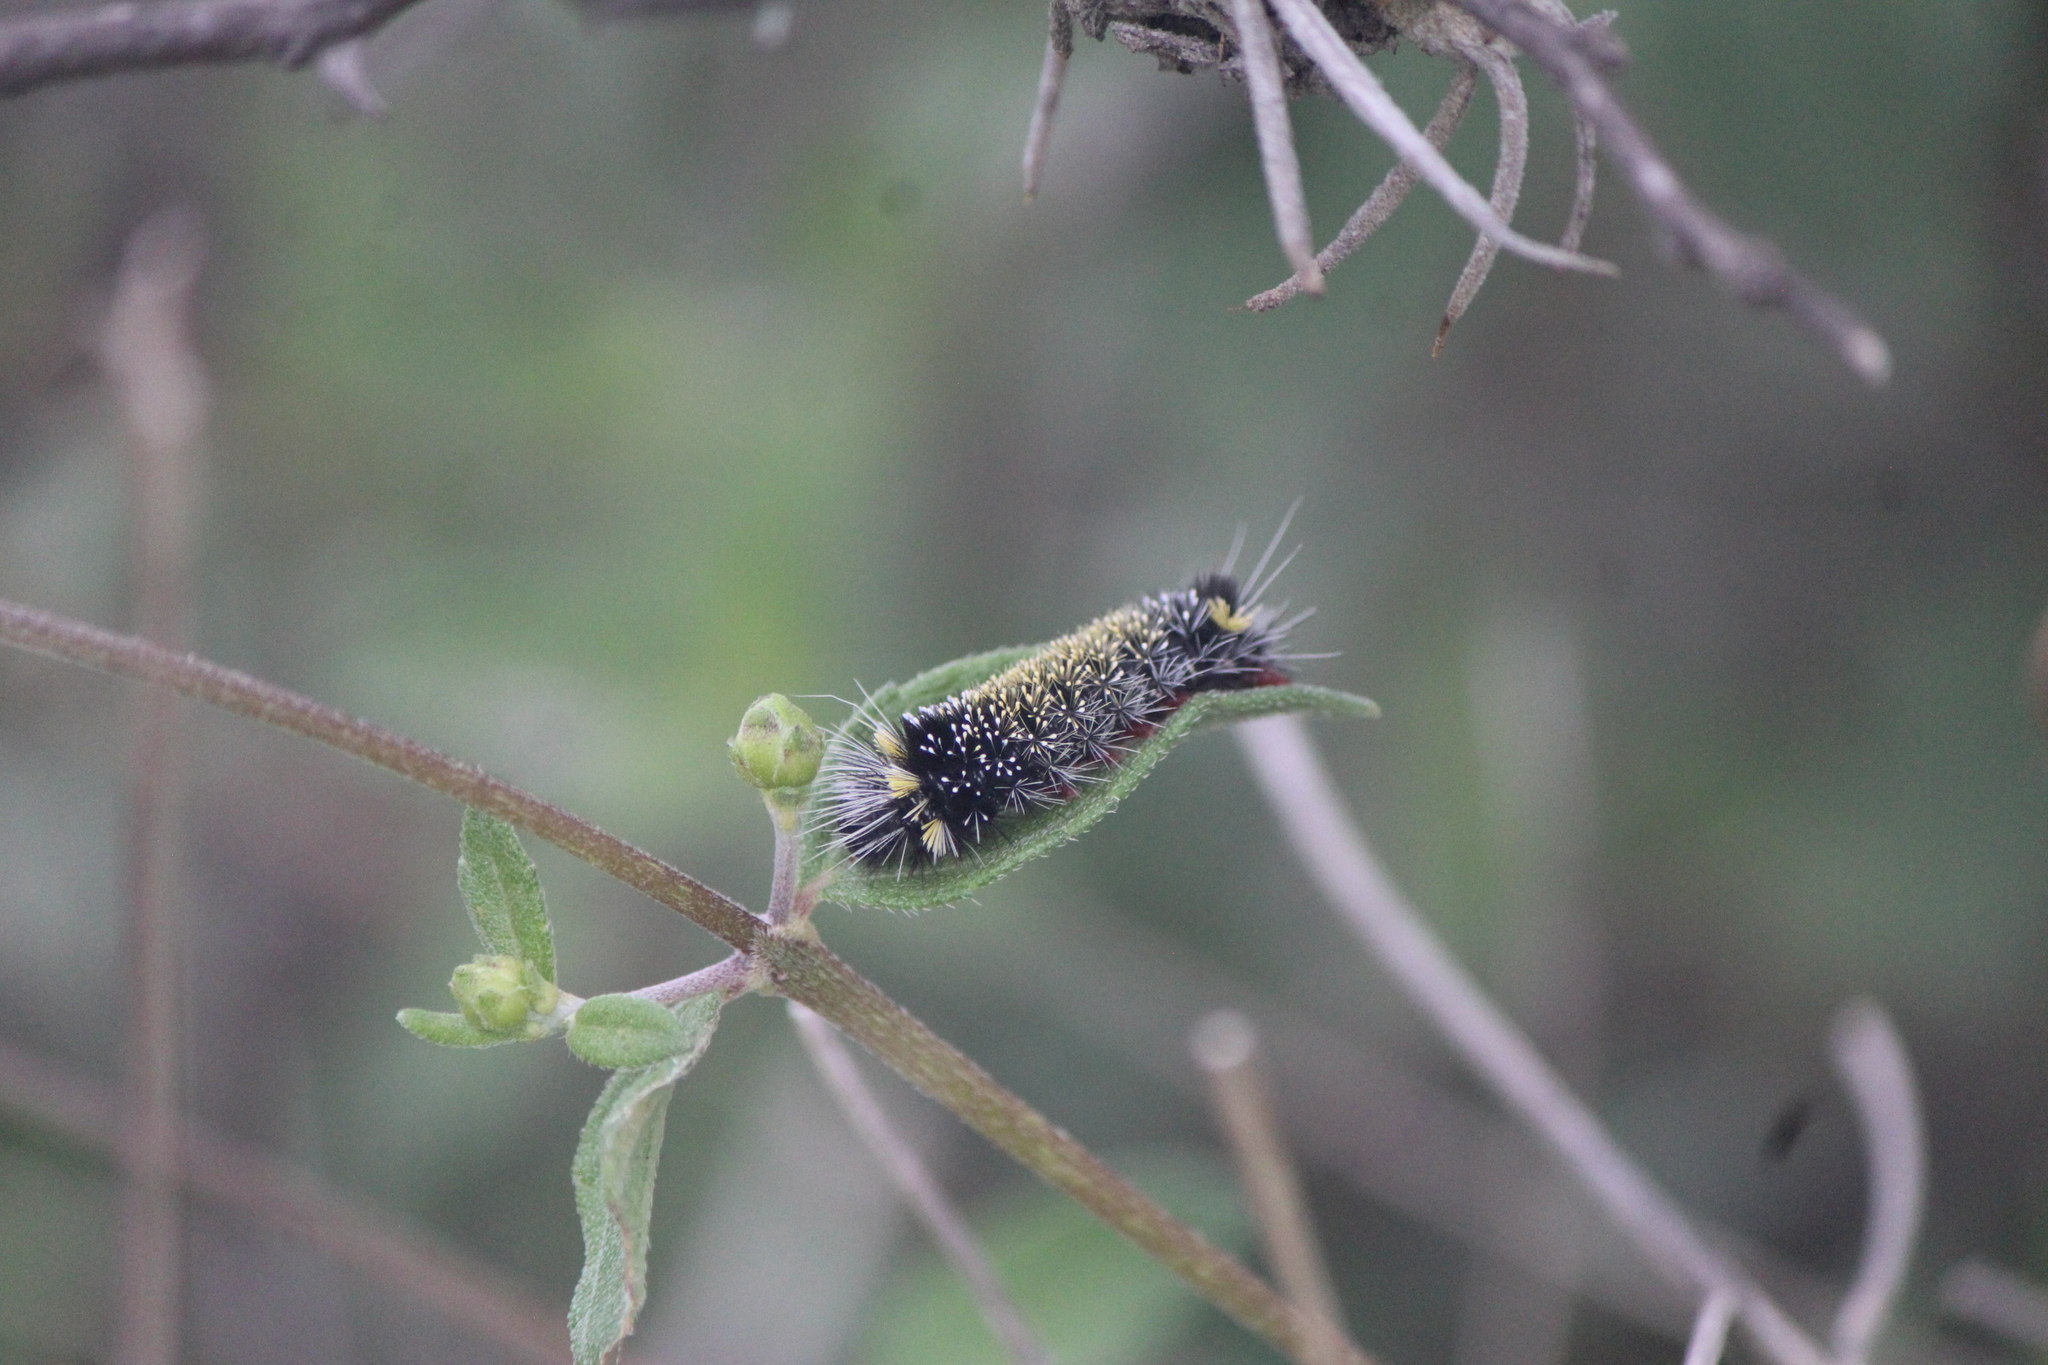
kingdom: Animalia
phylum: Arthropoda
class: Insecta
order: Lepidoptera
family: Erebidae
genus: Hypocrisias
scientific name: Hypocrisias minima
